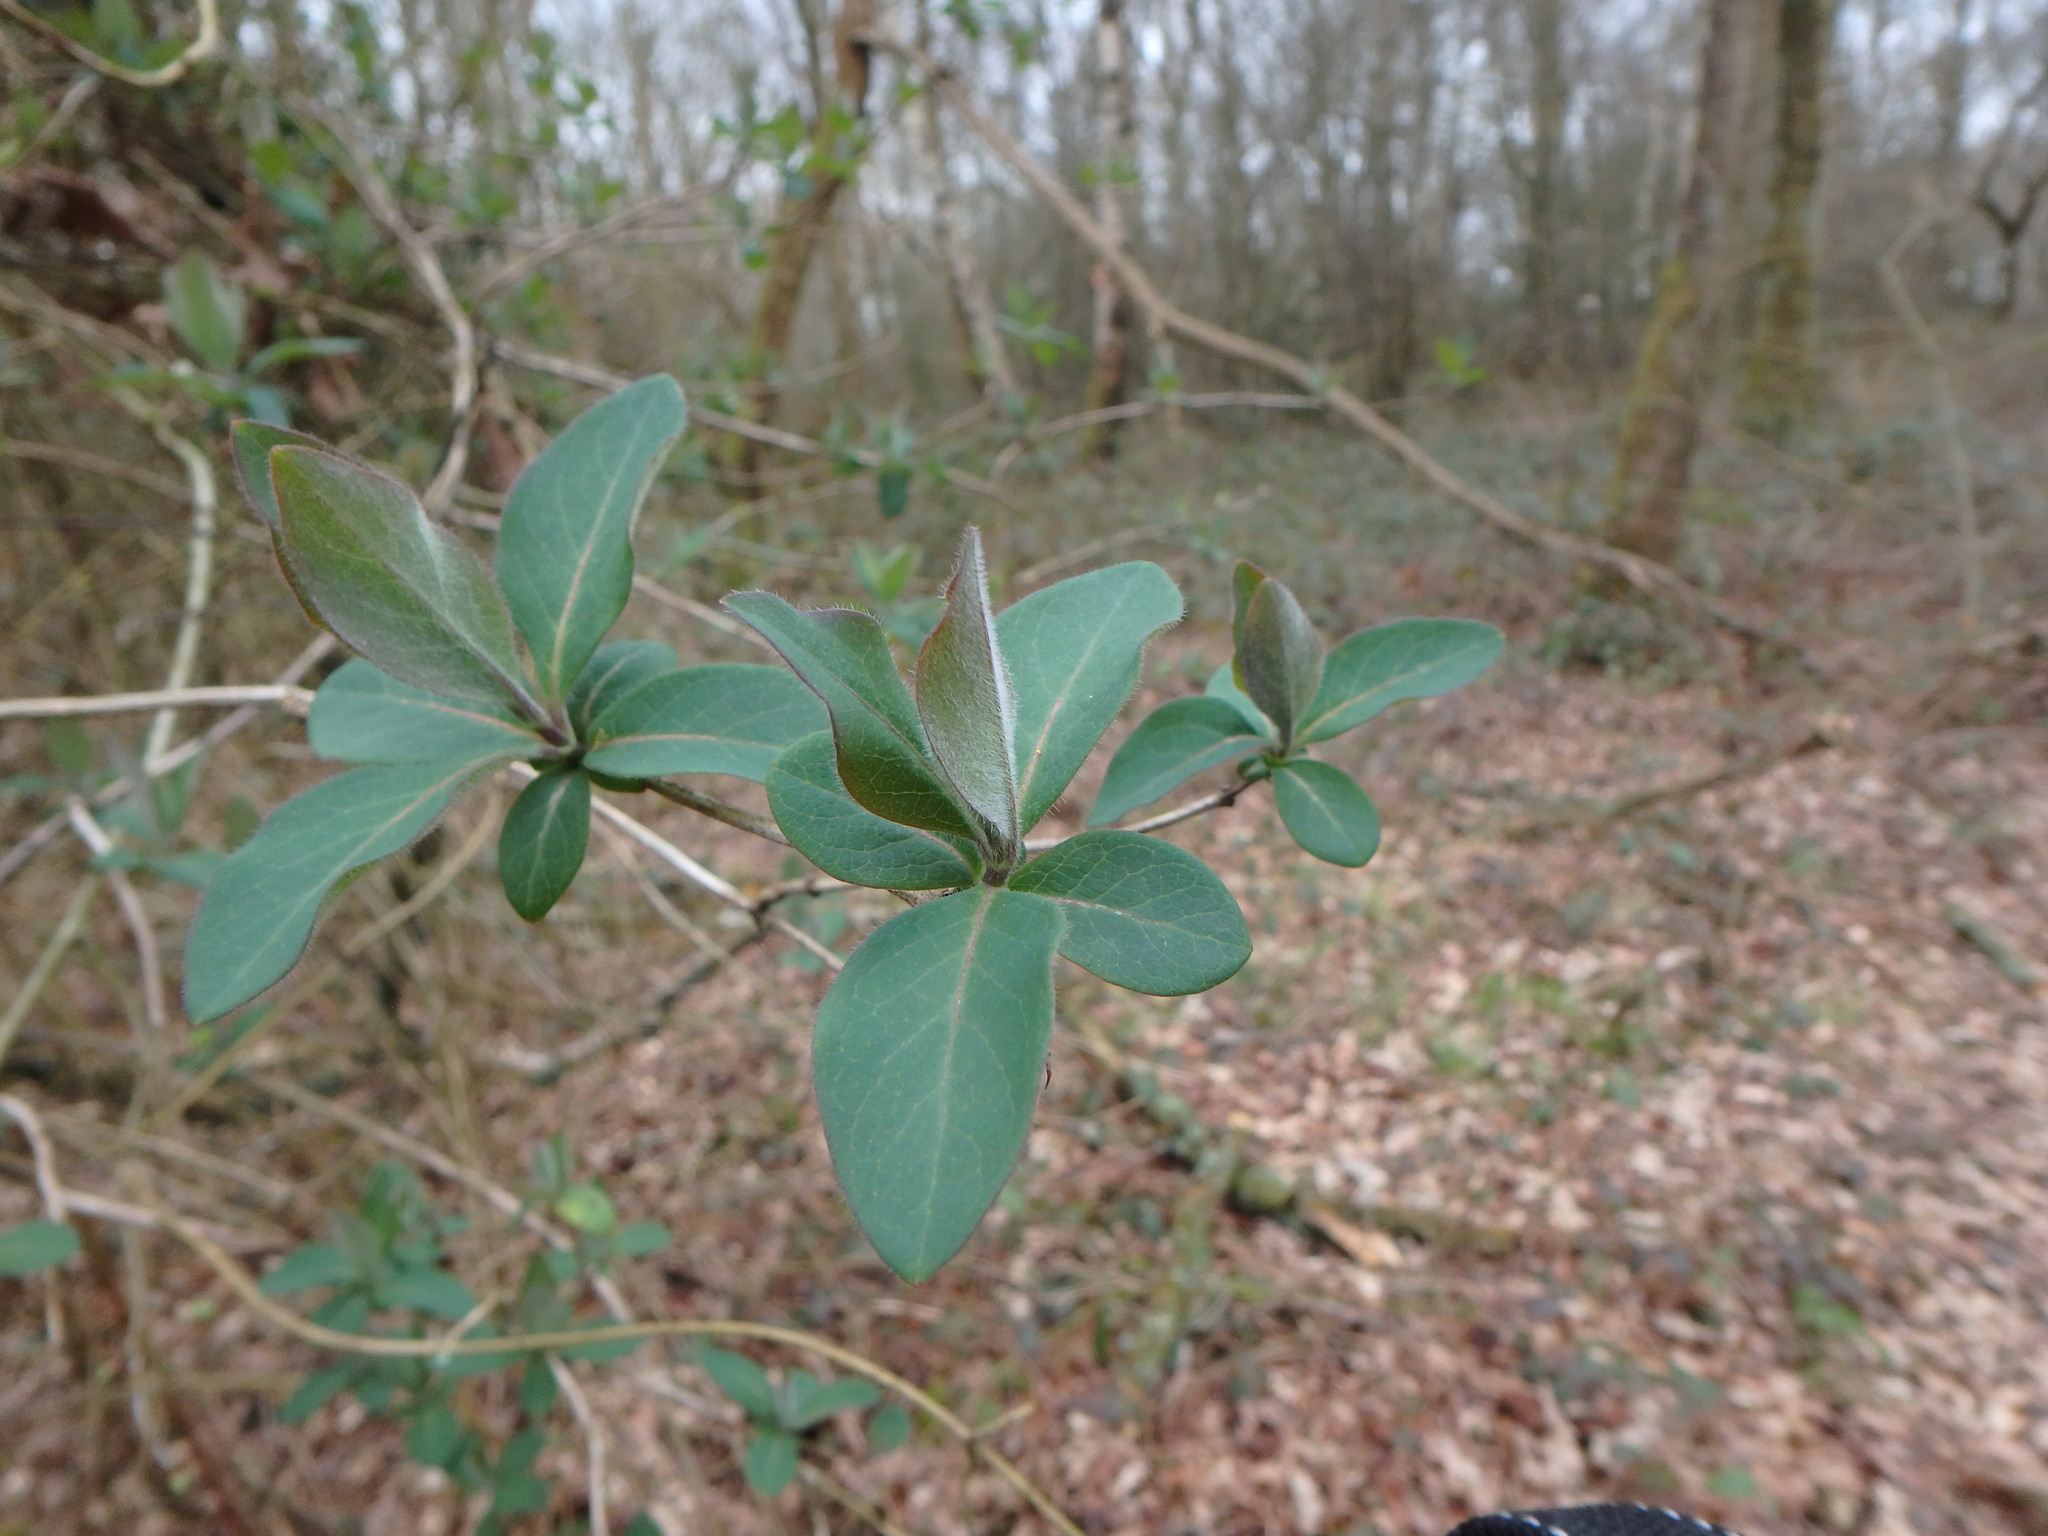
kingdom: Plantae
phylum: Tracheophyta
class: Magnoliopsida
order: Dipsacales
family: Caprifoliaceae
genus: Lonicera
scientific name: Lonicera periclymenum
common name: European honeysuckle
